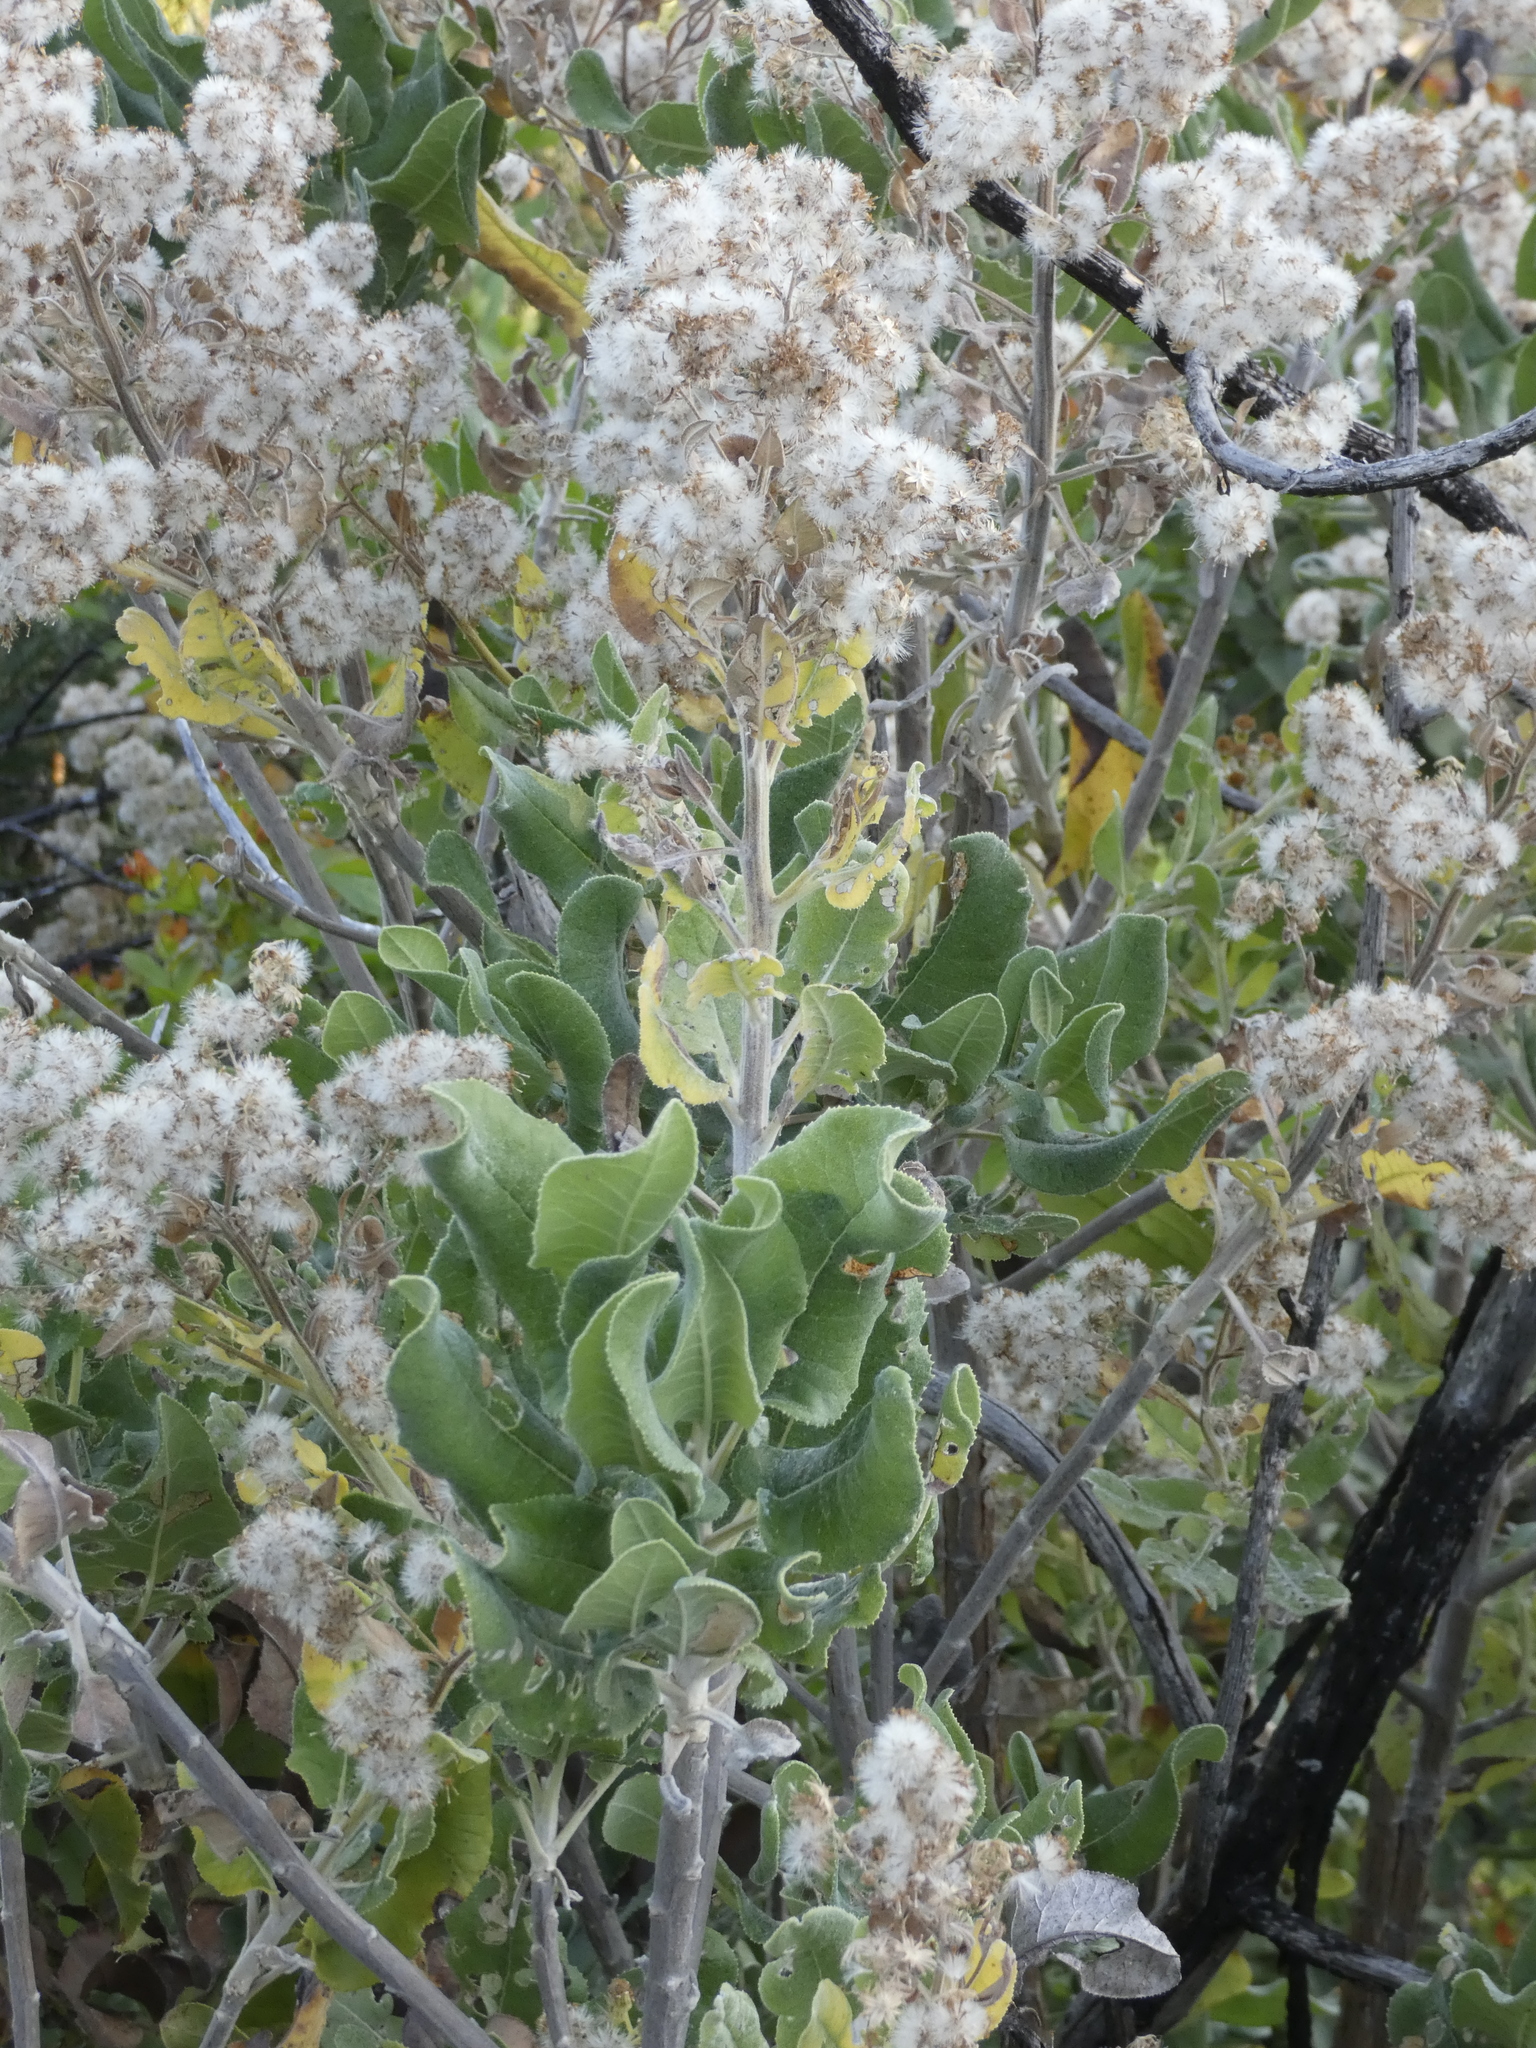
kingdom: Plantae
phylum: Tracheophyta
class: Magnoliopsida
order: Asterales
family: Asteraceae
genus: Acrisione
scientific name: Acrisione denticulata
